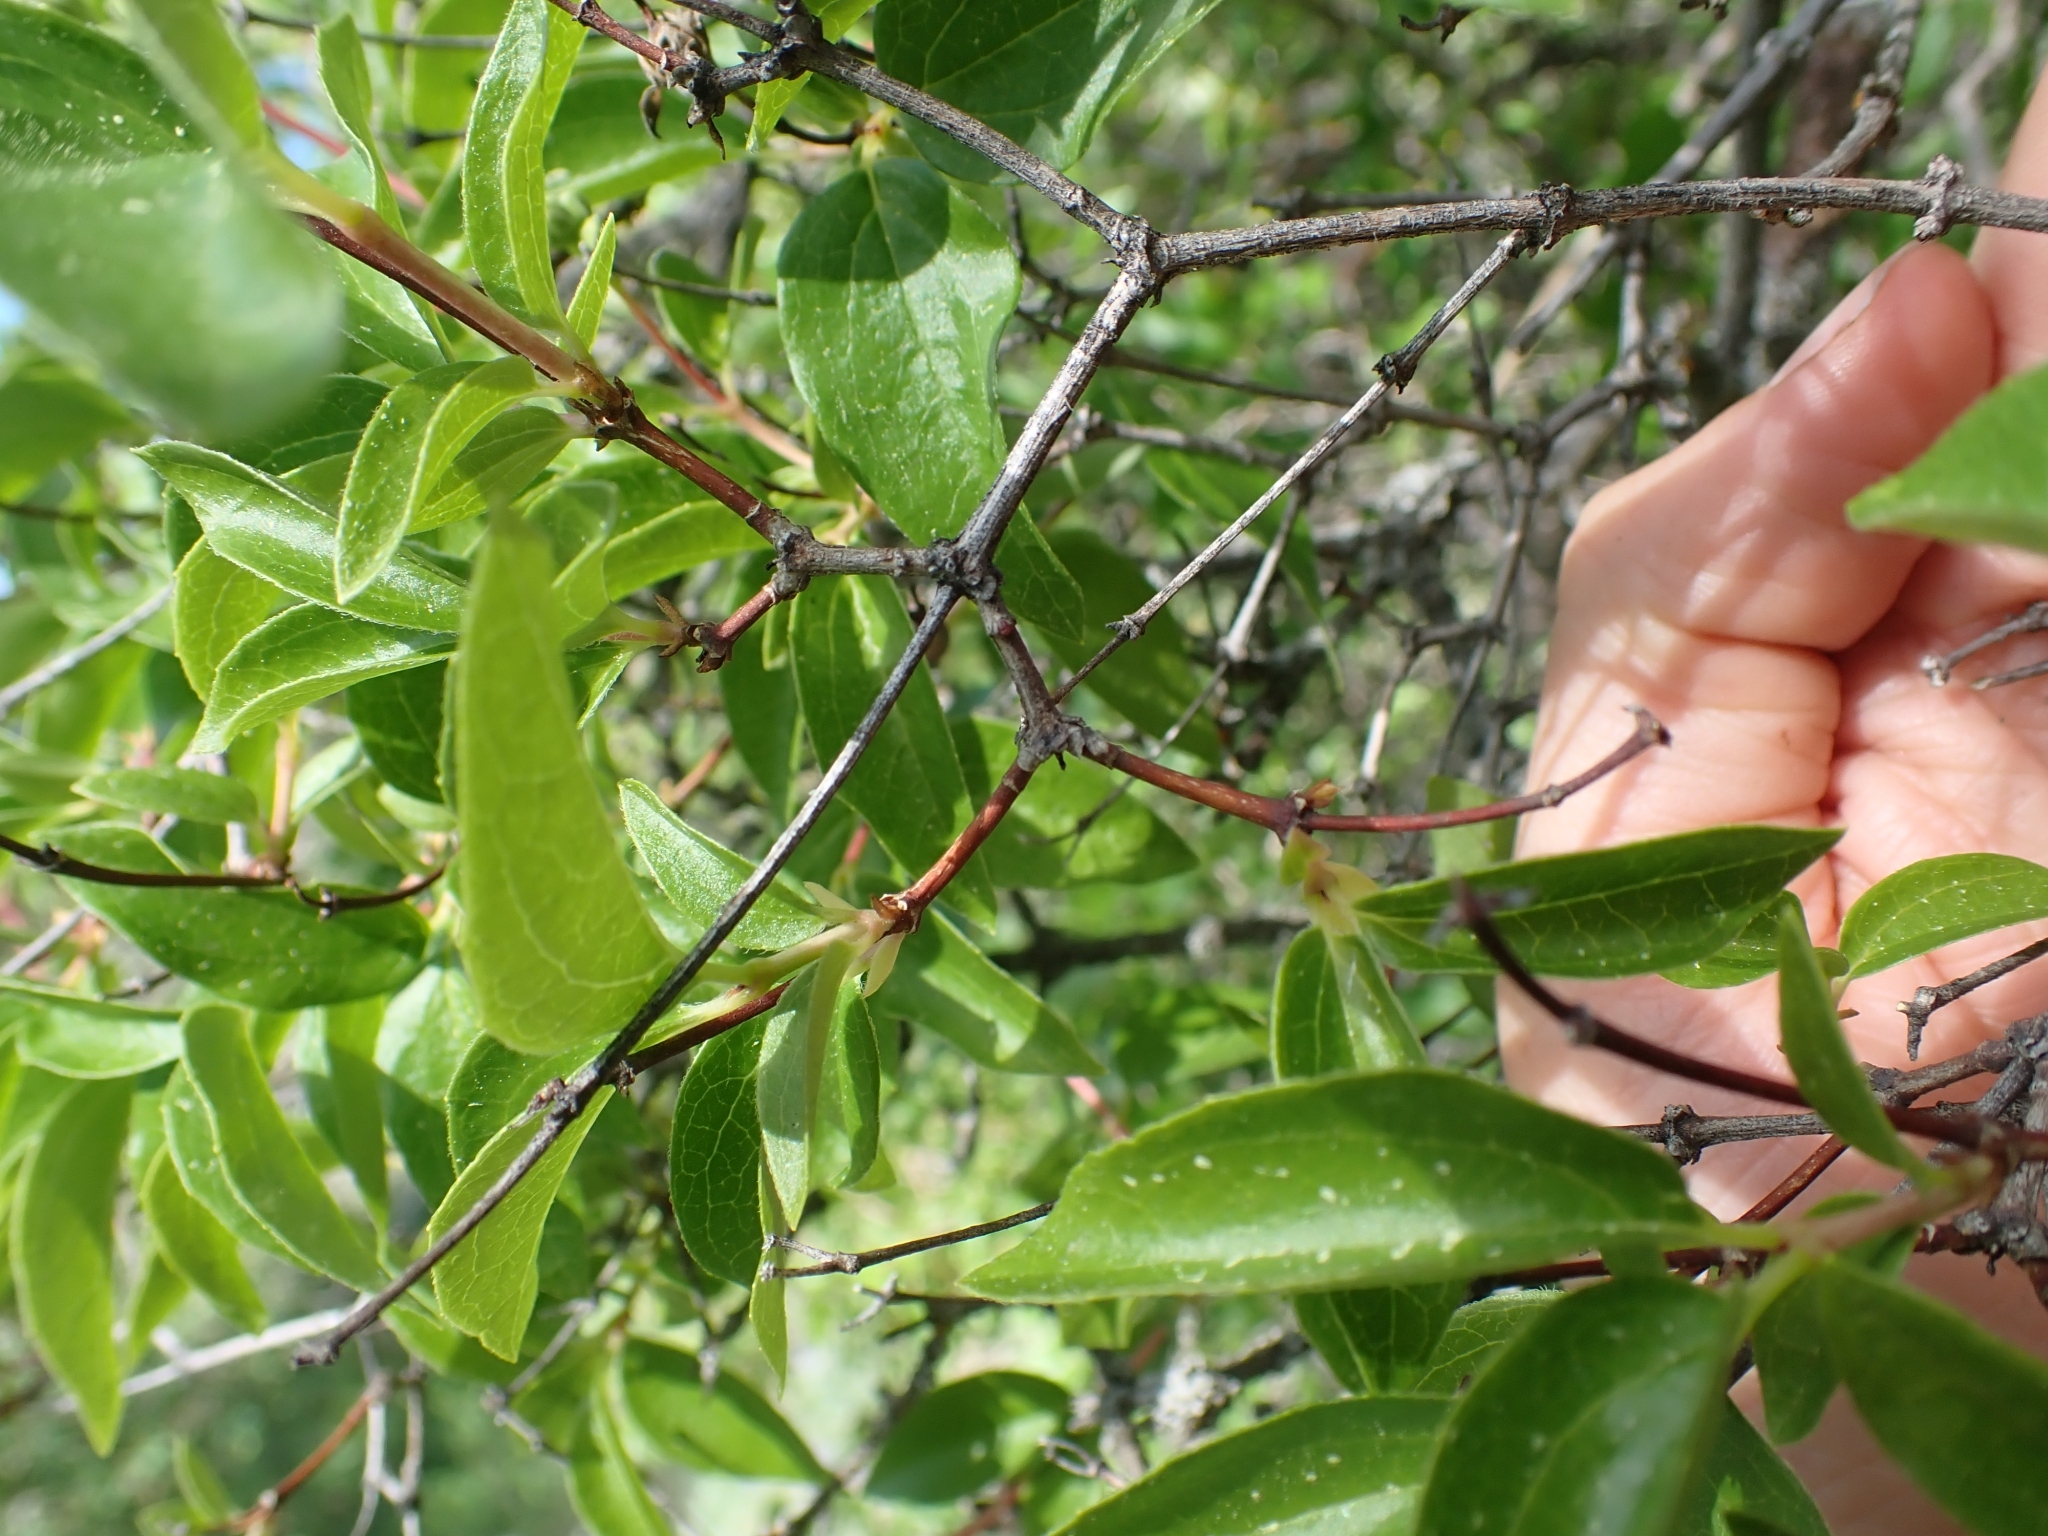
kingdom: Plantae
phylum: Tracheophyta
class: Magnoliopsida
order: Cornales
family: Hydrangeaceae
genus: Philadelphus
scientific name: Philadelphus lewisii
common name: Lewis's mock orange
